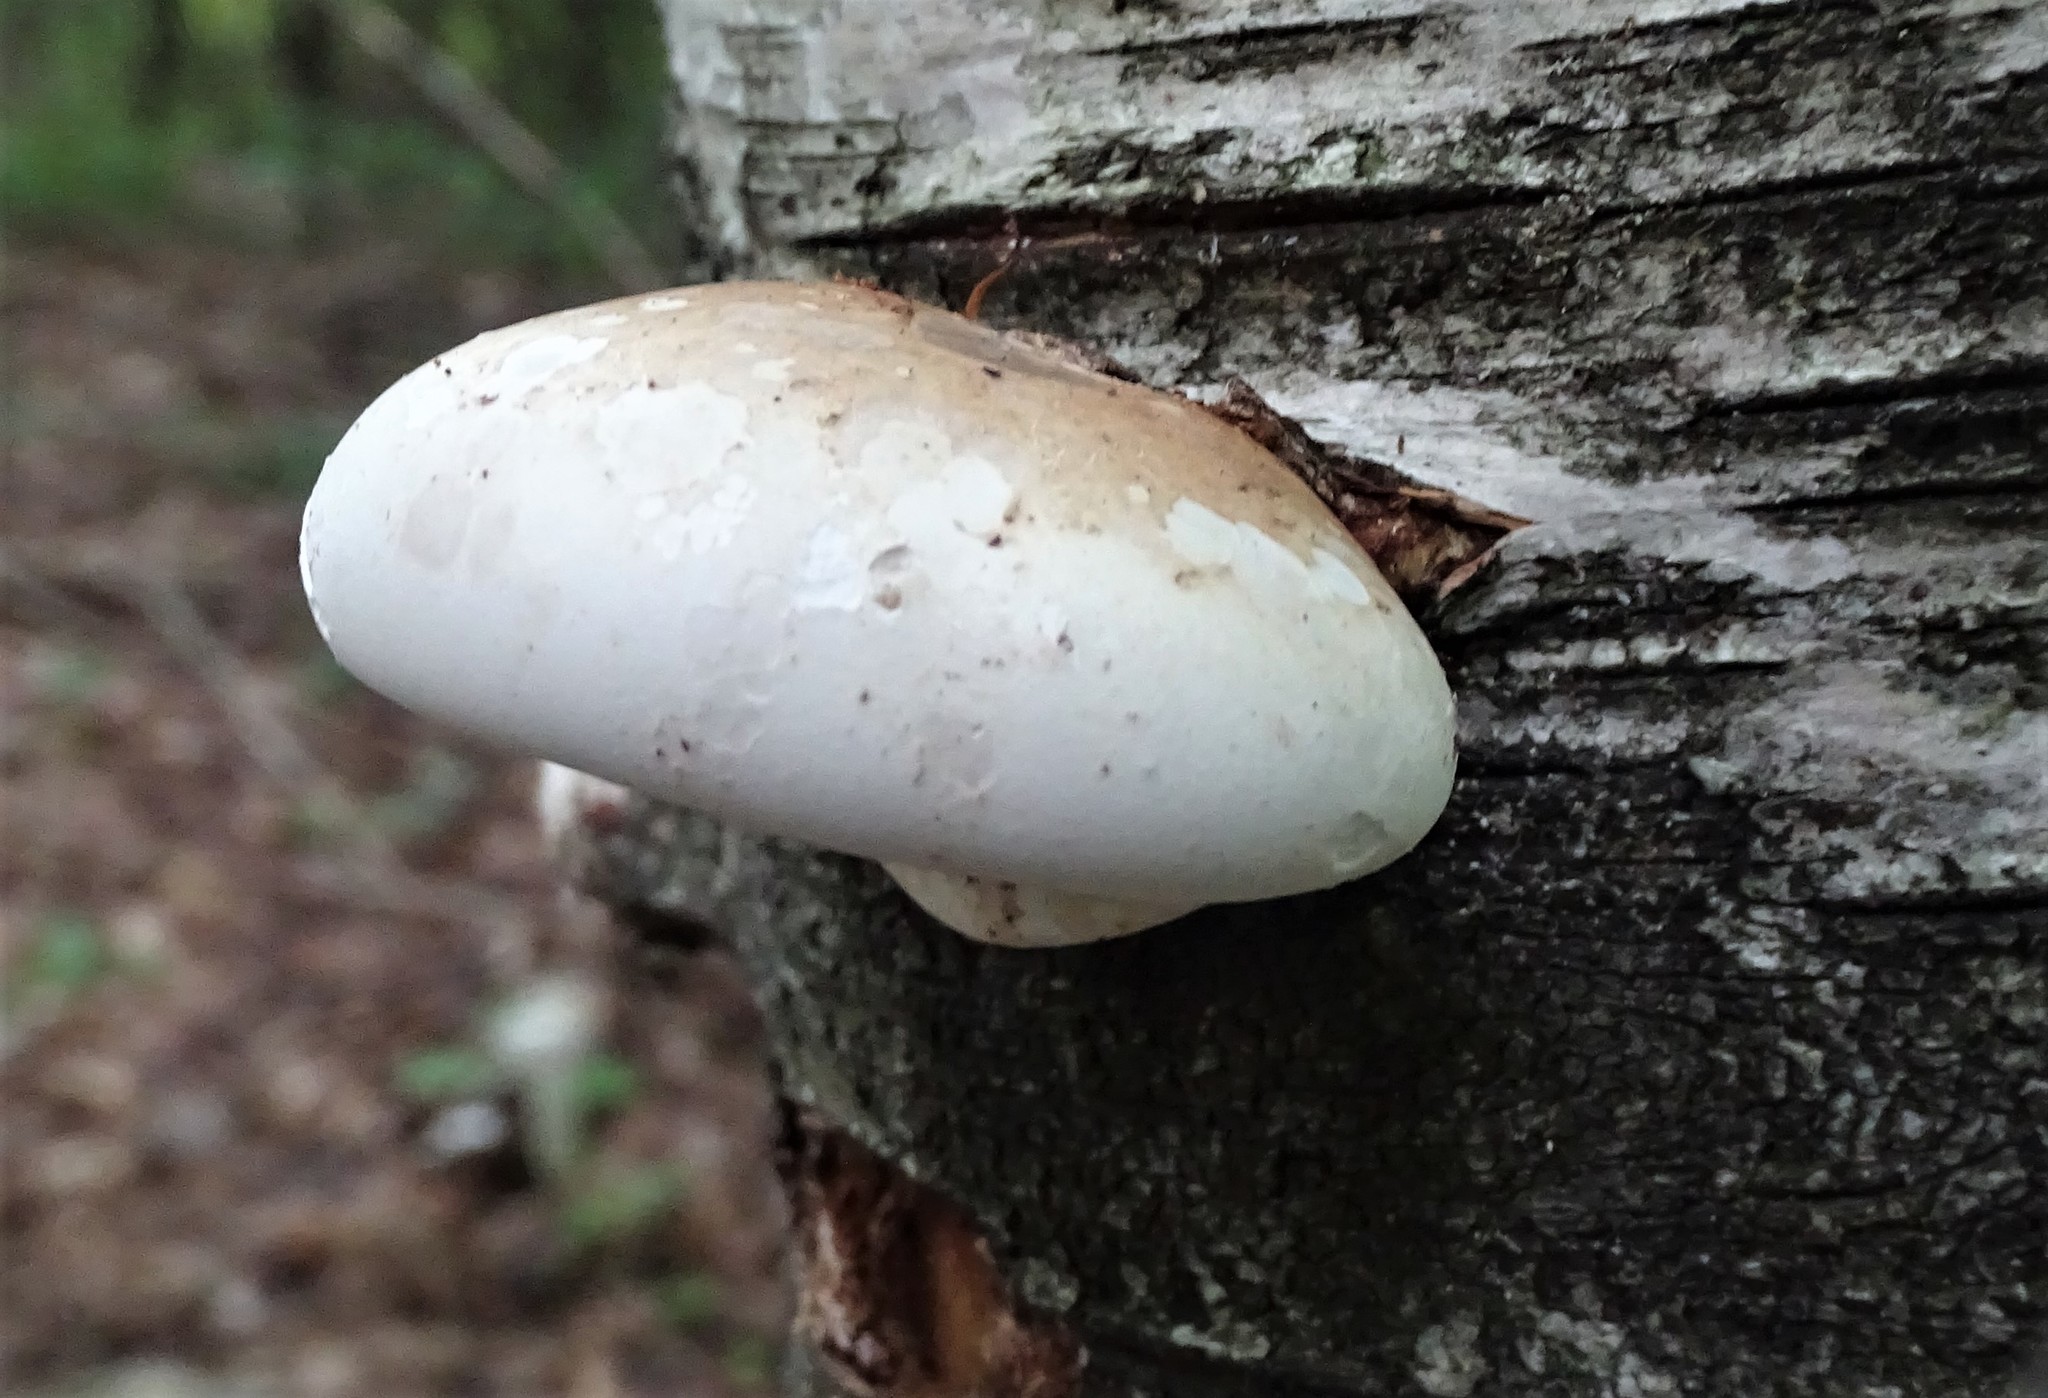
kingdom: Fungi
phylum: Basidiomycota
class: Agaricomycetes
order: Polyporales
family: Fomitopsidaceae
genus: Fomitopsis
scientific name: Fomitopsis betulina
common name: Birch polypore
